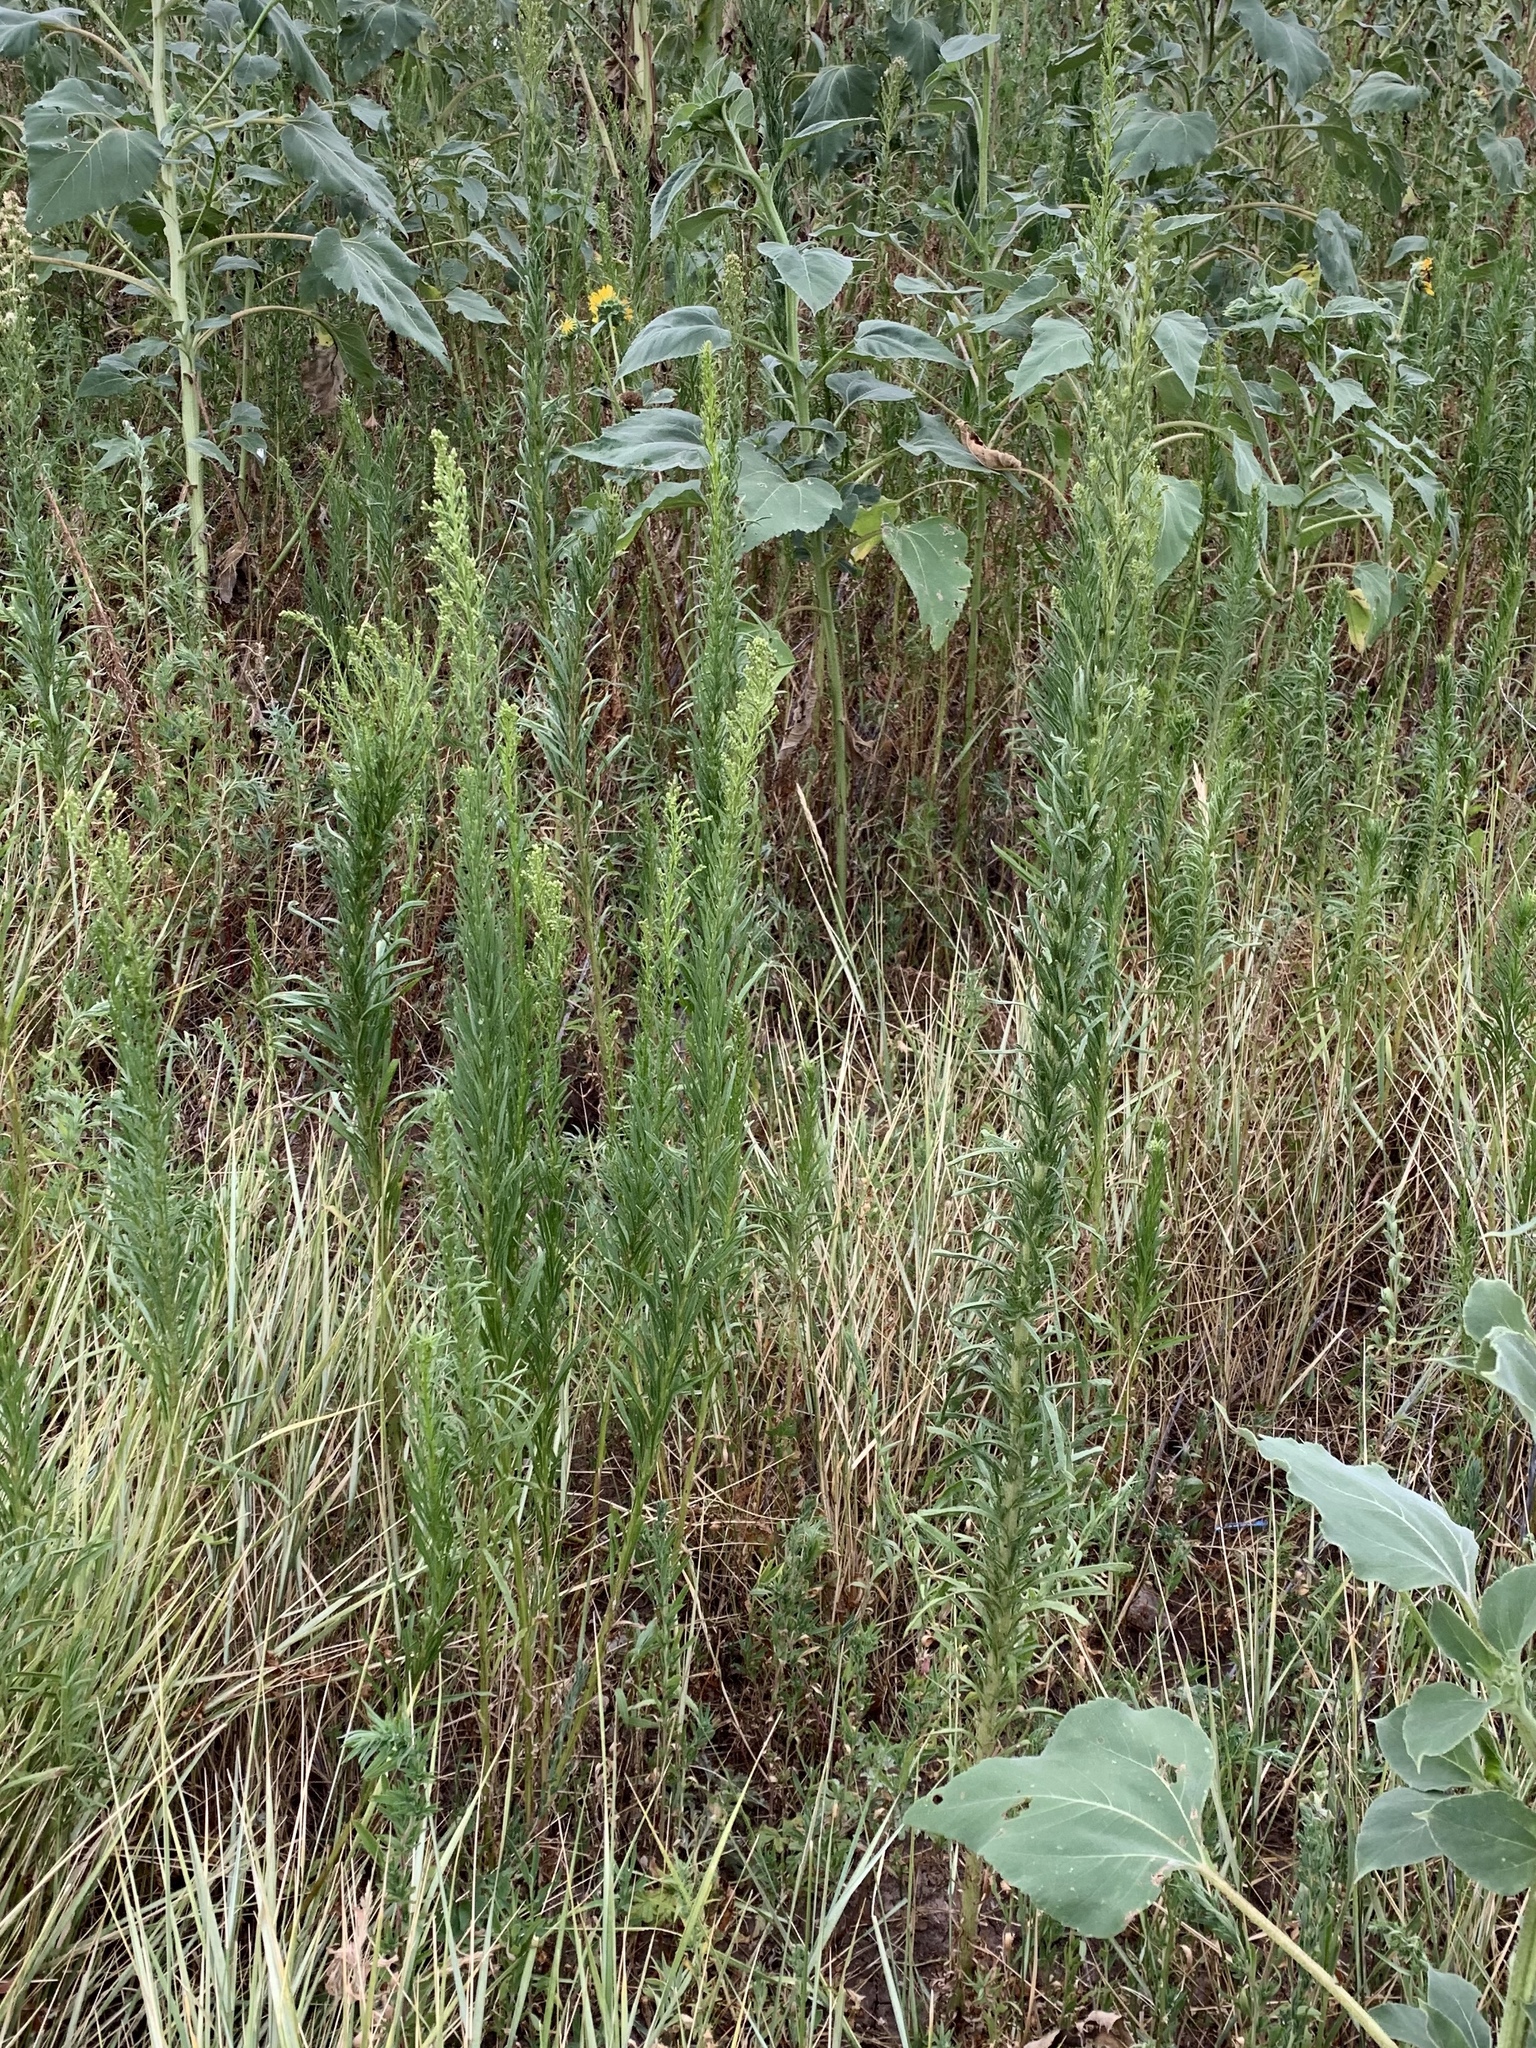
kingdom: Plantae
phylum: Tracheophyta
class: Magnoliopsida
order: Asterales
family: Asteraceae
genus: Erigeron
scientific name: Erigeron canadensis
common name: Canadian fleabane
